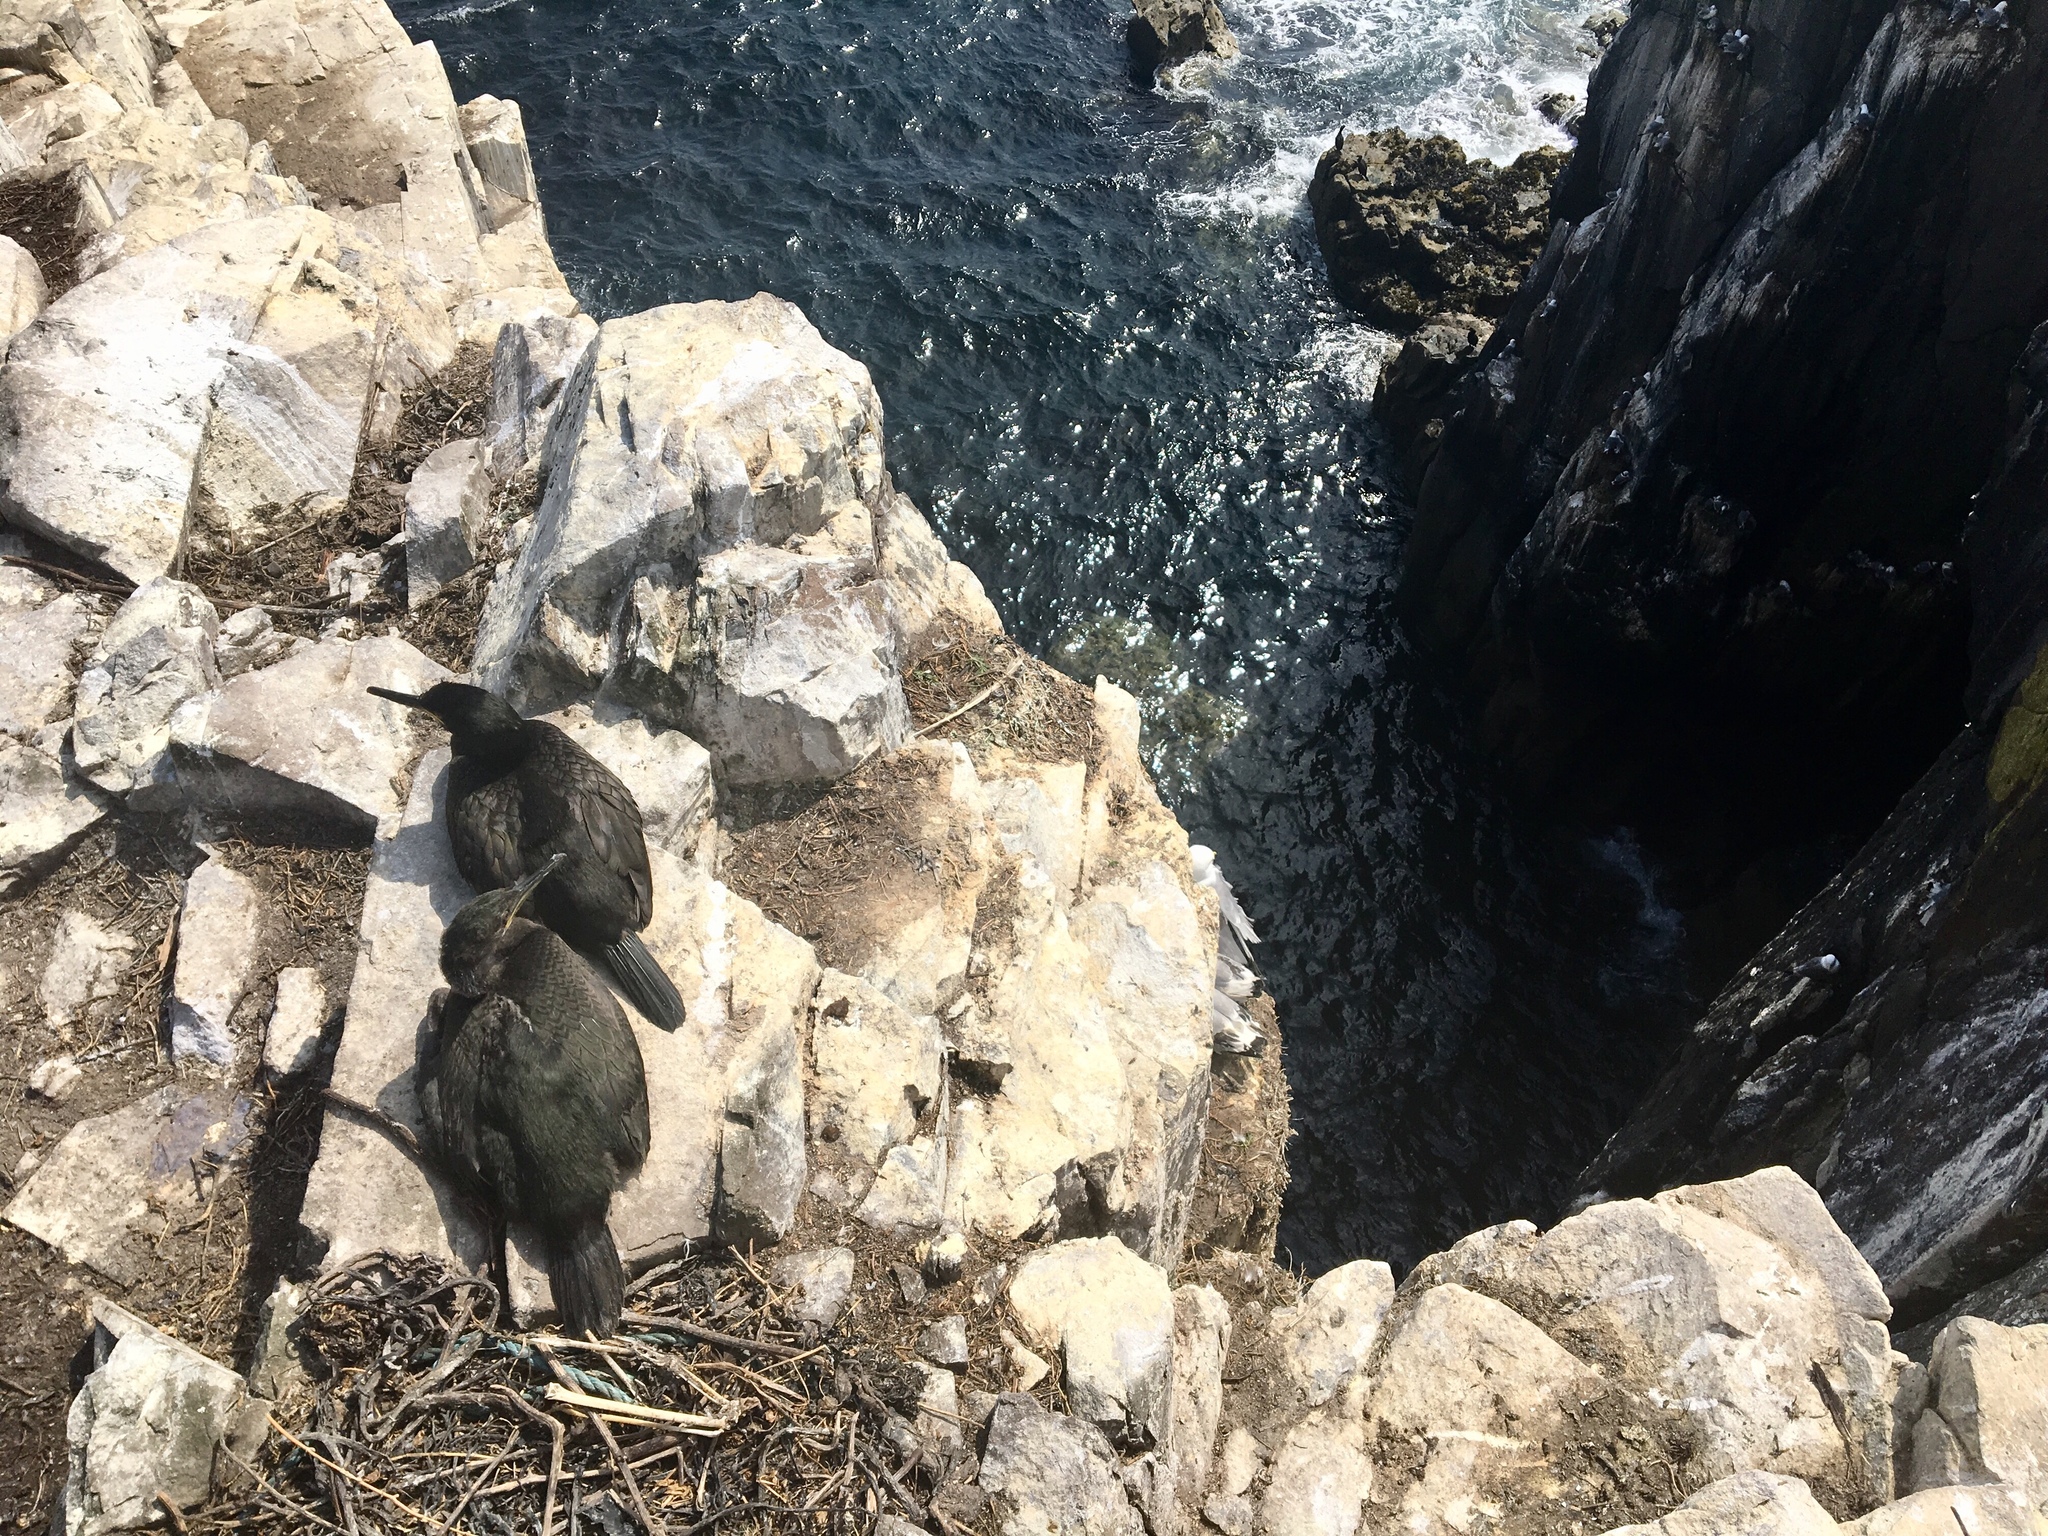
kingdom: Animalia
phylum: Chordata
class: Aves
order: Suliformes
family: Phalacrocoracidae
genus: Phalacrocorax
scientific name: Phalacrocorax aristotelis
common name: European shag
